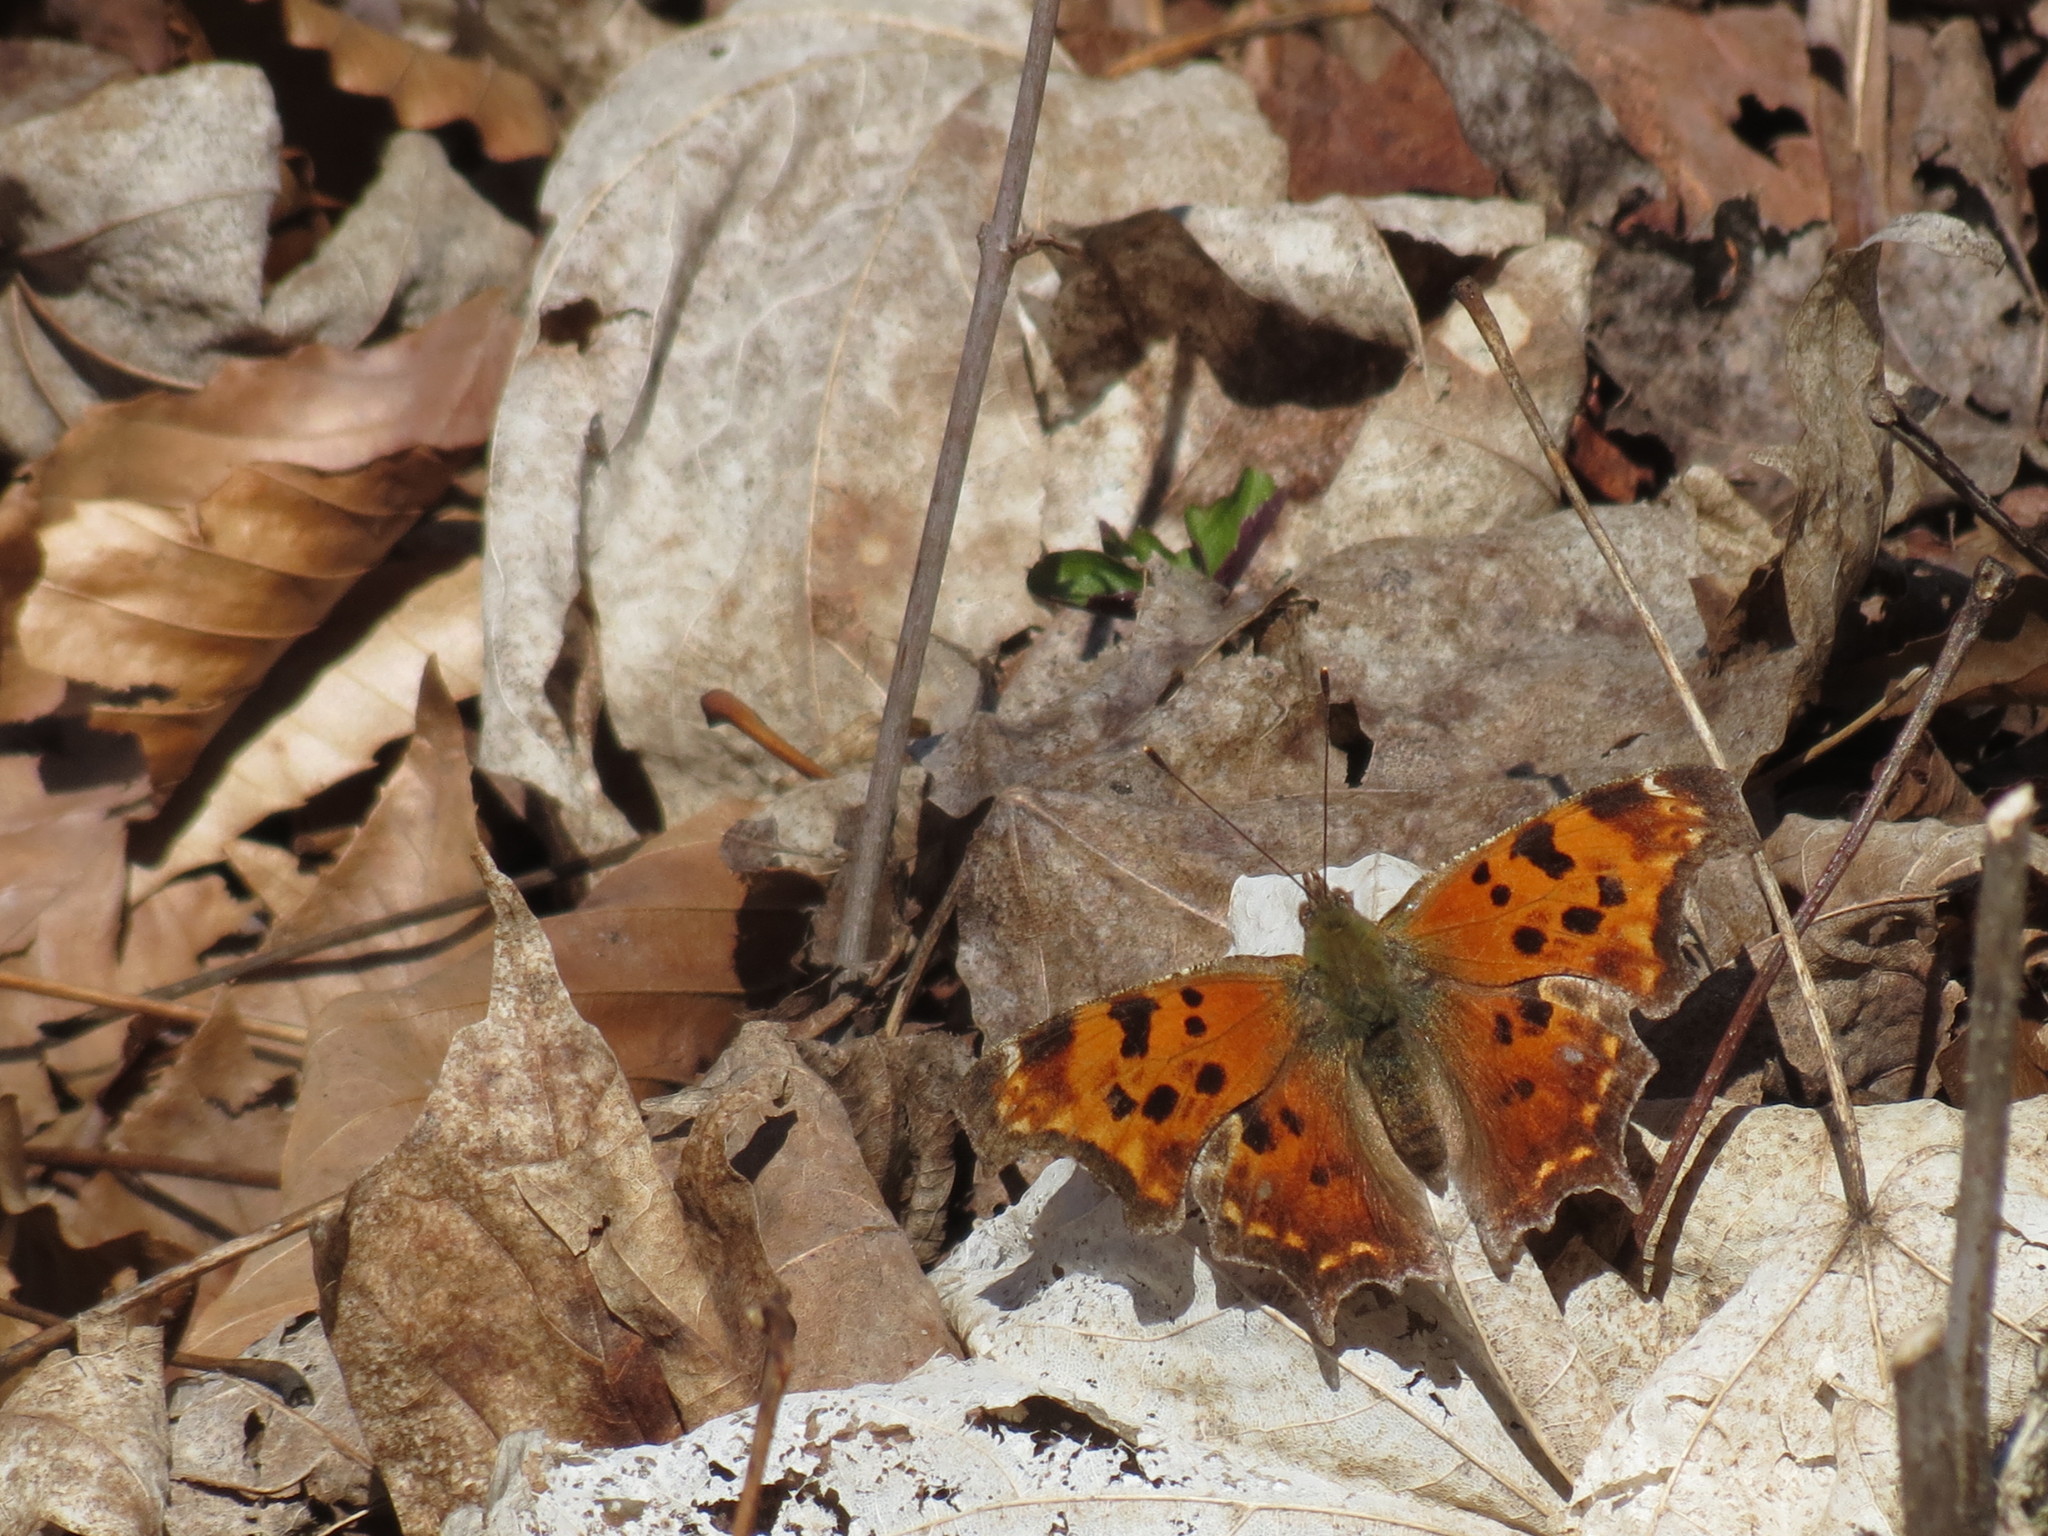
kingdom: Animalia
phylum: Arthropoda
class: Insecta
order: Lepidoptera
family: Nymphalidae
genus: Polygonia
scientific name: Polygonia comma
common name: Eastern comma
